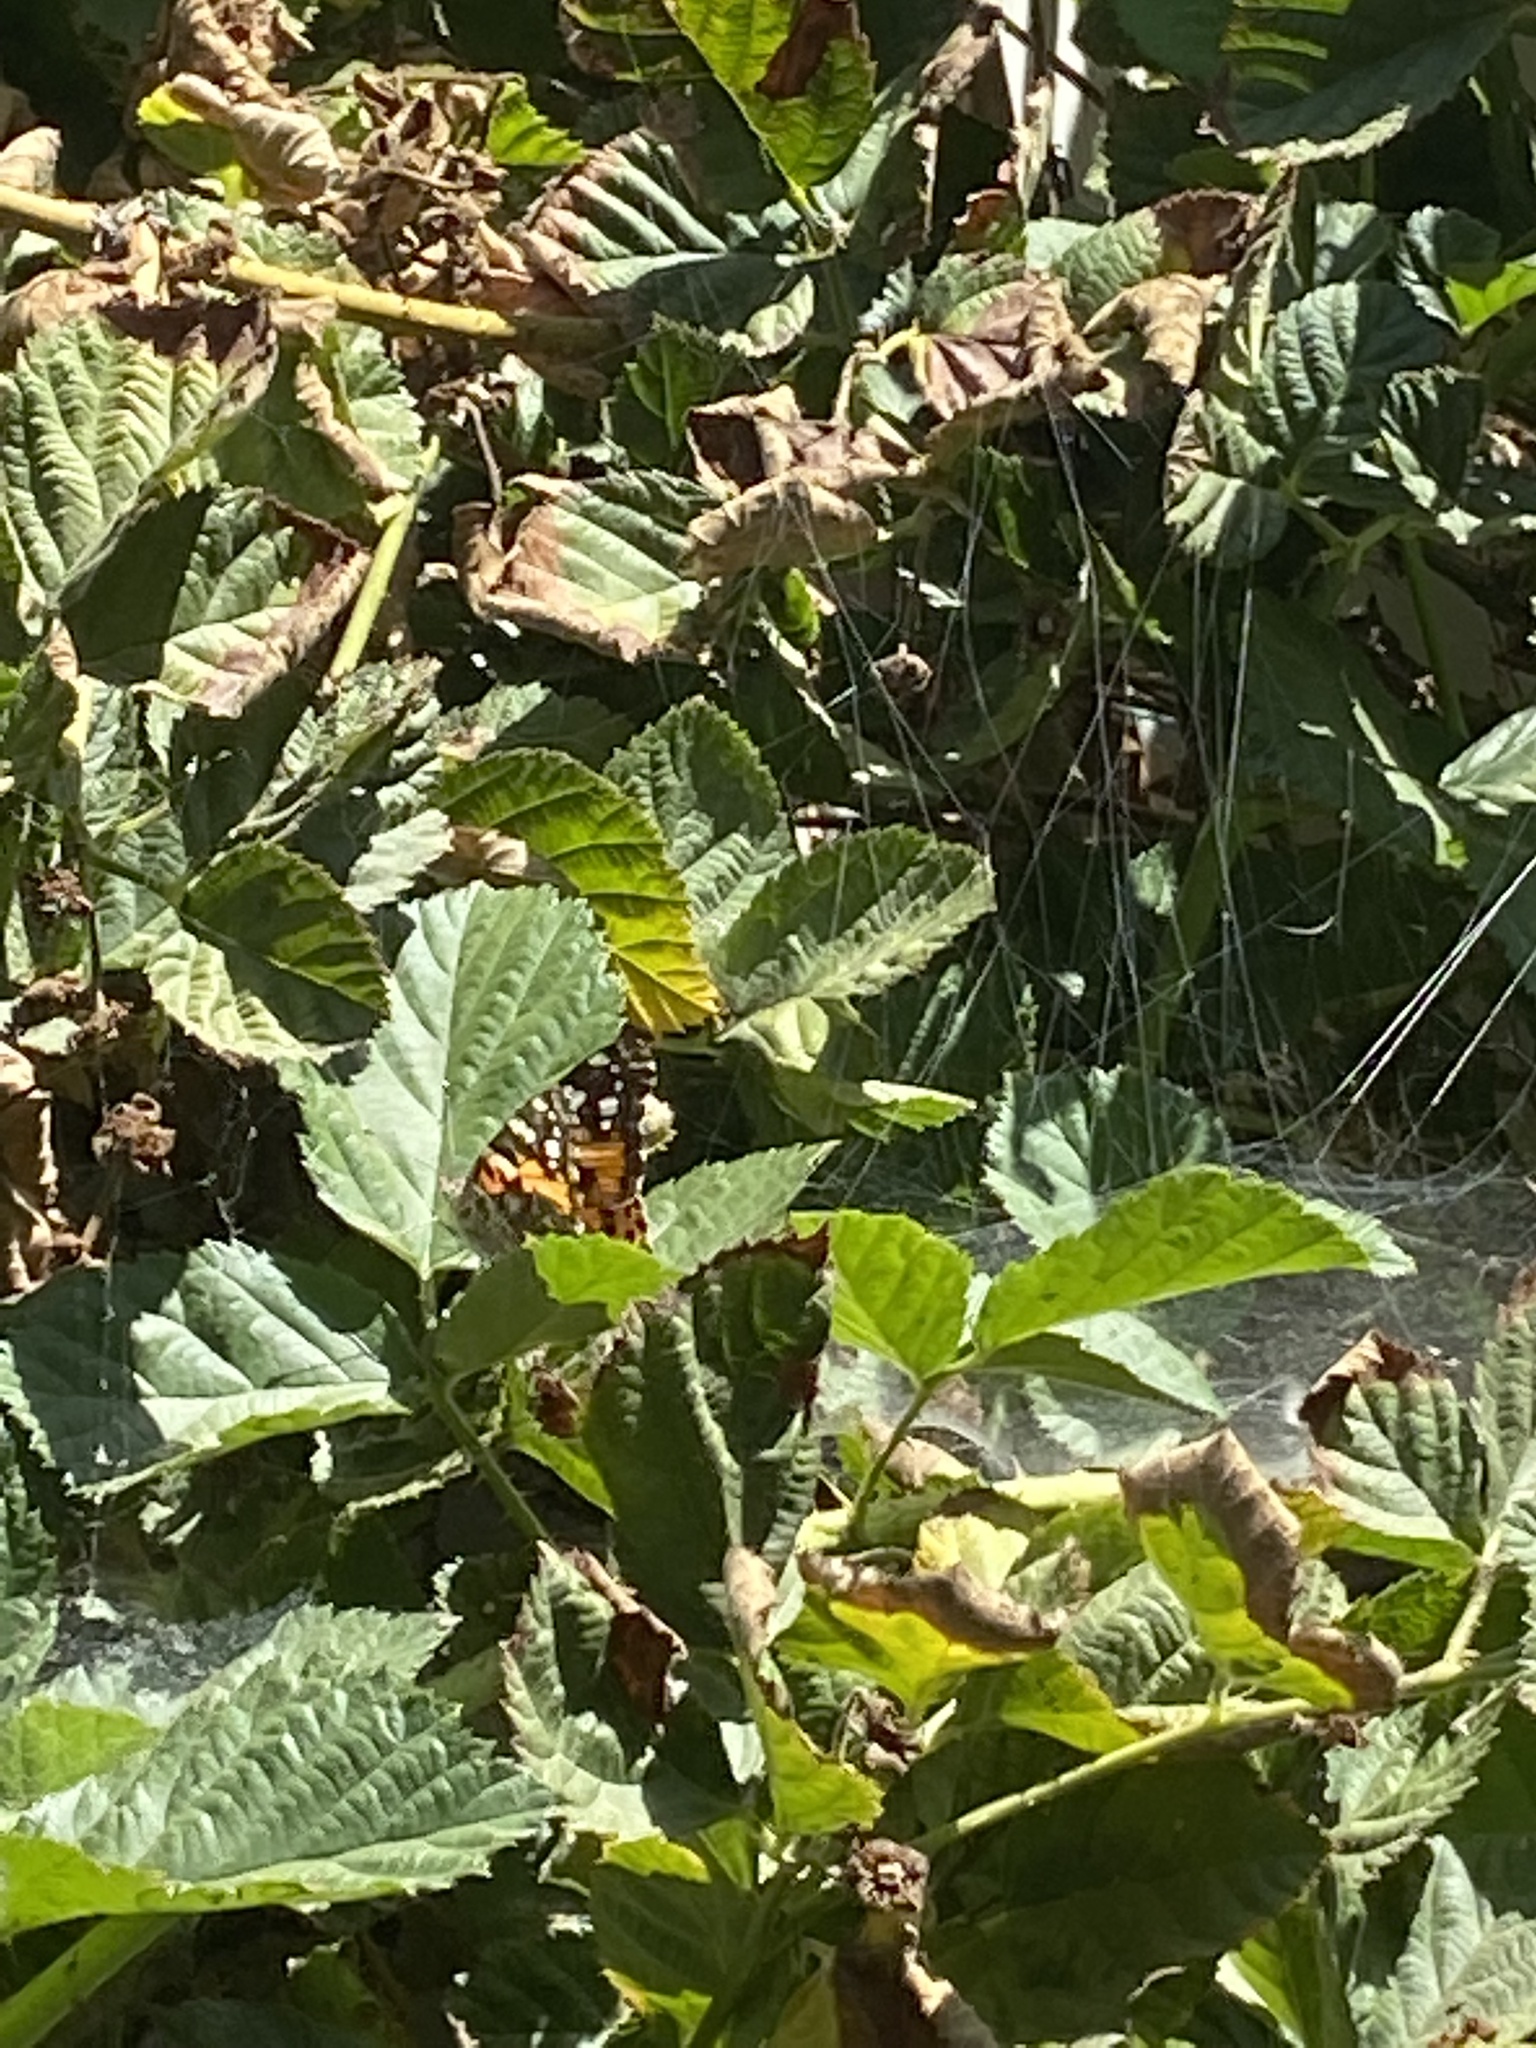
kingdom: Animalia
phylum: Arthropoda
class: Insecta
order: Lepidoptera
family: Nymphalidae
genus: Vanessa
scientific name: Vanessa cardui
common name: Painted lady
